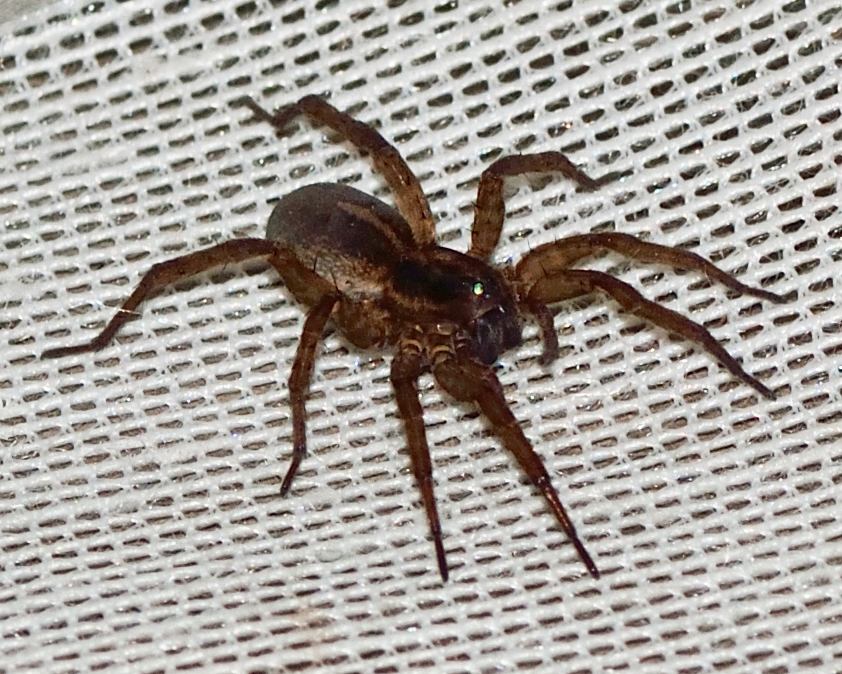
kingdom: Animalia
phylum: Arthropoda
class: Arachnida
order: Araneae
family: Lycosidae
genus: Trochosa
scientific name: Trochosa
